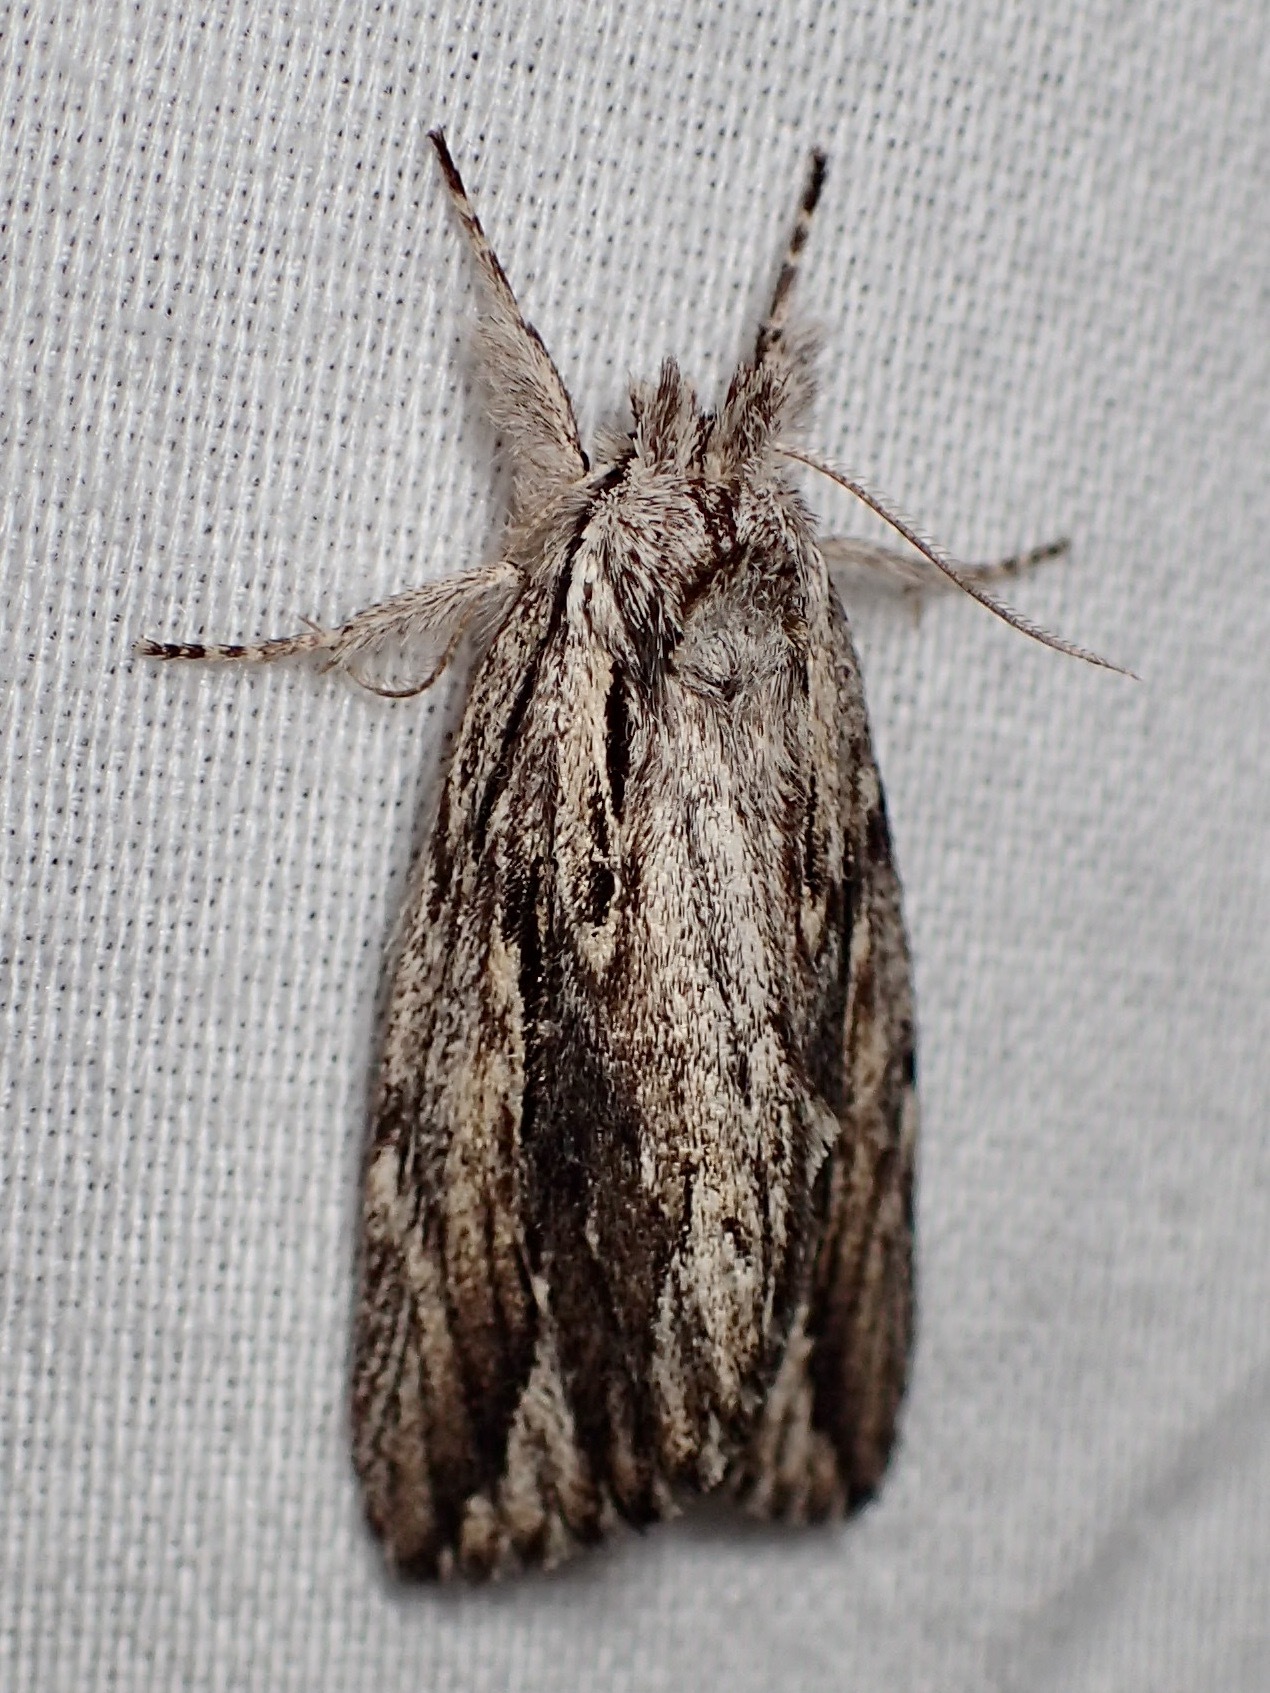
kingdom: Animalia
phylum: Arthropoda
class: Insecta
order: Lepidoptera
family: Notodontidae
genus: Ecnomodes
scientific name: Ecnomodes sagittaria
